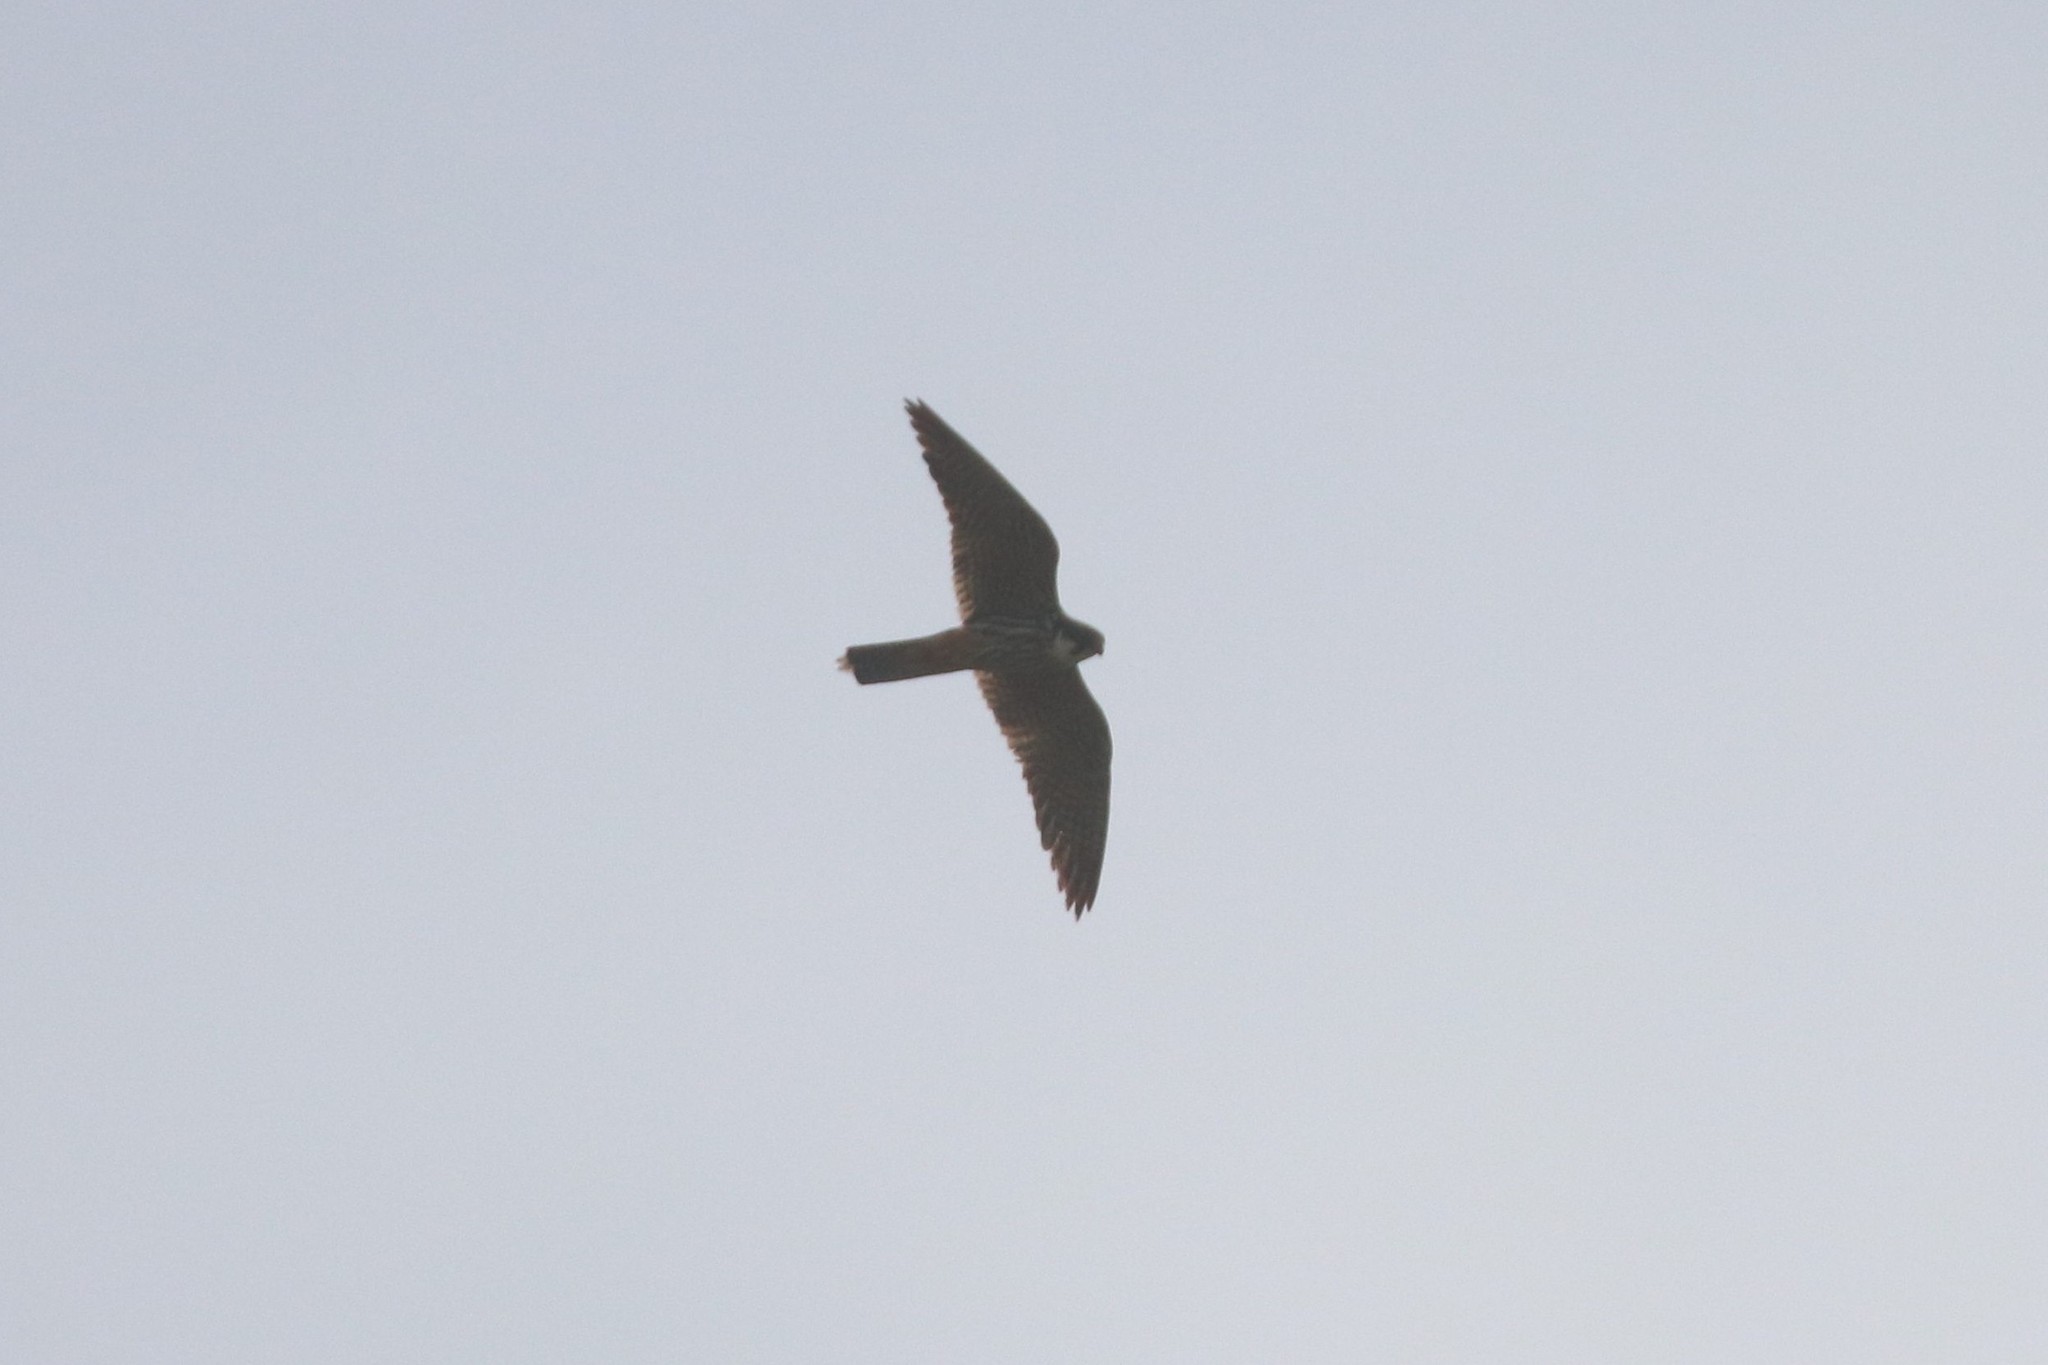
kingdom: Animalia
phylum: Chordata
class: Aves
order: Falconiformes
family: Falconidae
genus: Falco
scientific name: Falco subbuteo
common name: Eurasian hobby
